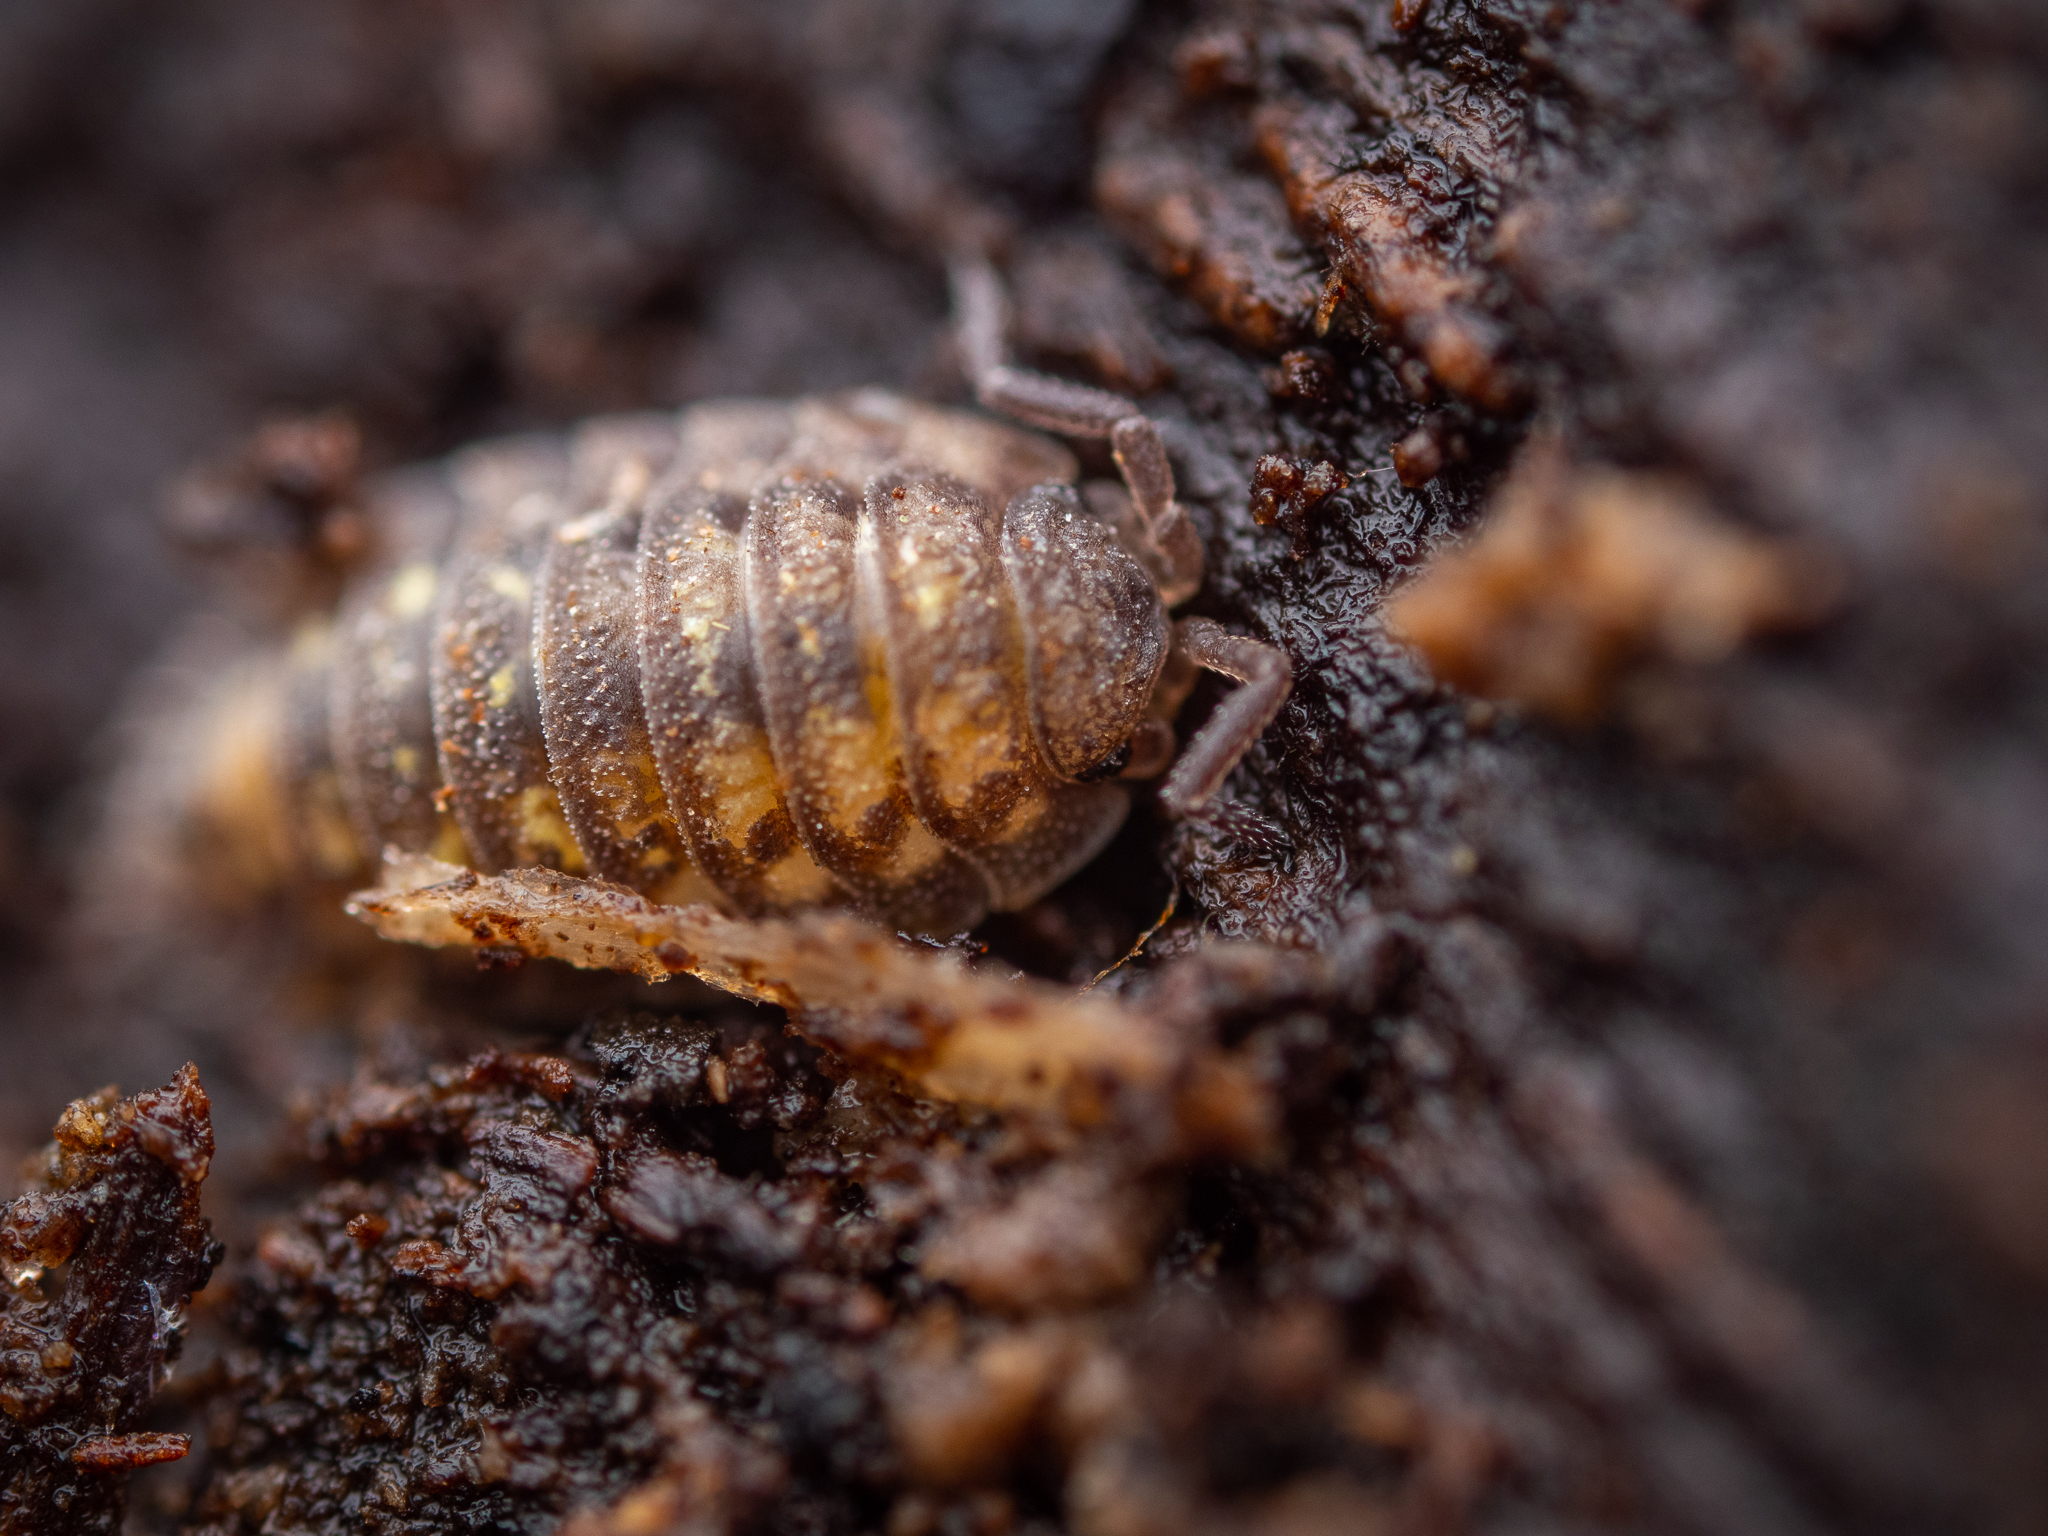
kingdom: Animalia
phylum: Arthropoda
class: Malacostraca
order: Isopoda
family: Oniscidae
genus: Oniscus
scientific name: Oniscus asellus
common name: Common shiny woodlouse
